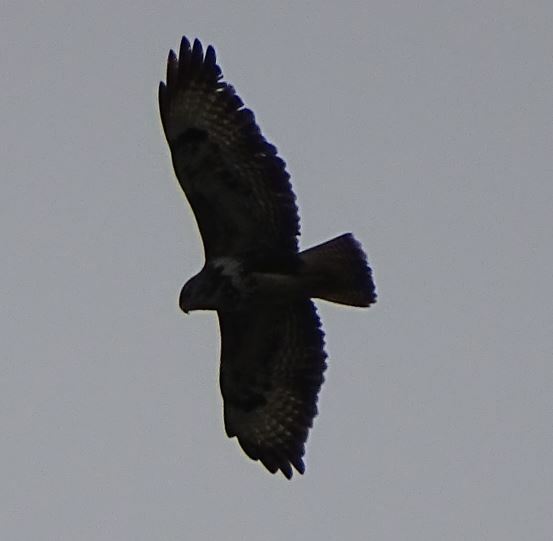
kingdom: Animalia
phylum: Chordata
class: Aves
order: Accipitriformes
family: Accipitridae
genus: Buteo
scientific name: Buteo buteo
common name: Common buzzard
